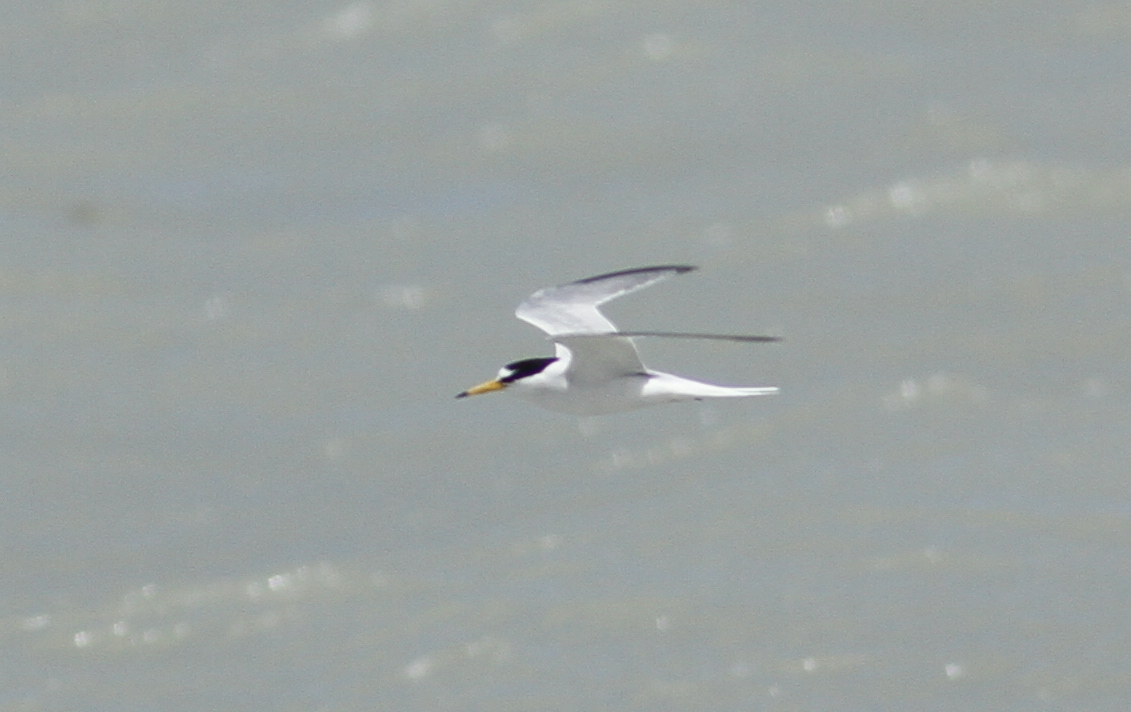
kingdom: Animalia
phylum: Chordata
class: Aves
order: Charadriiformes
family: Laridae
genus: Sternula
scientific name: Sternula albifrons
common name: Little tern
